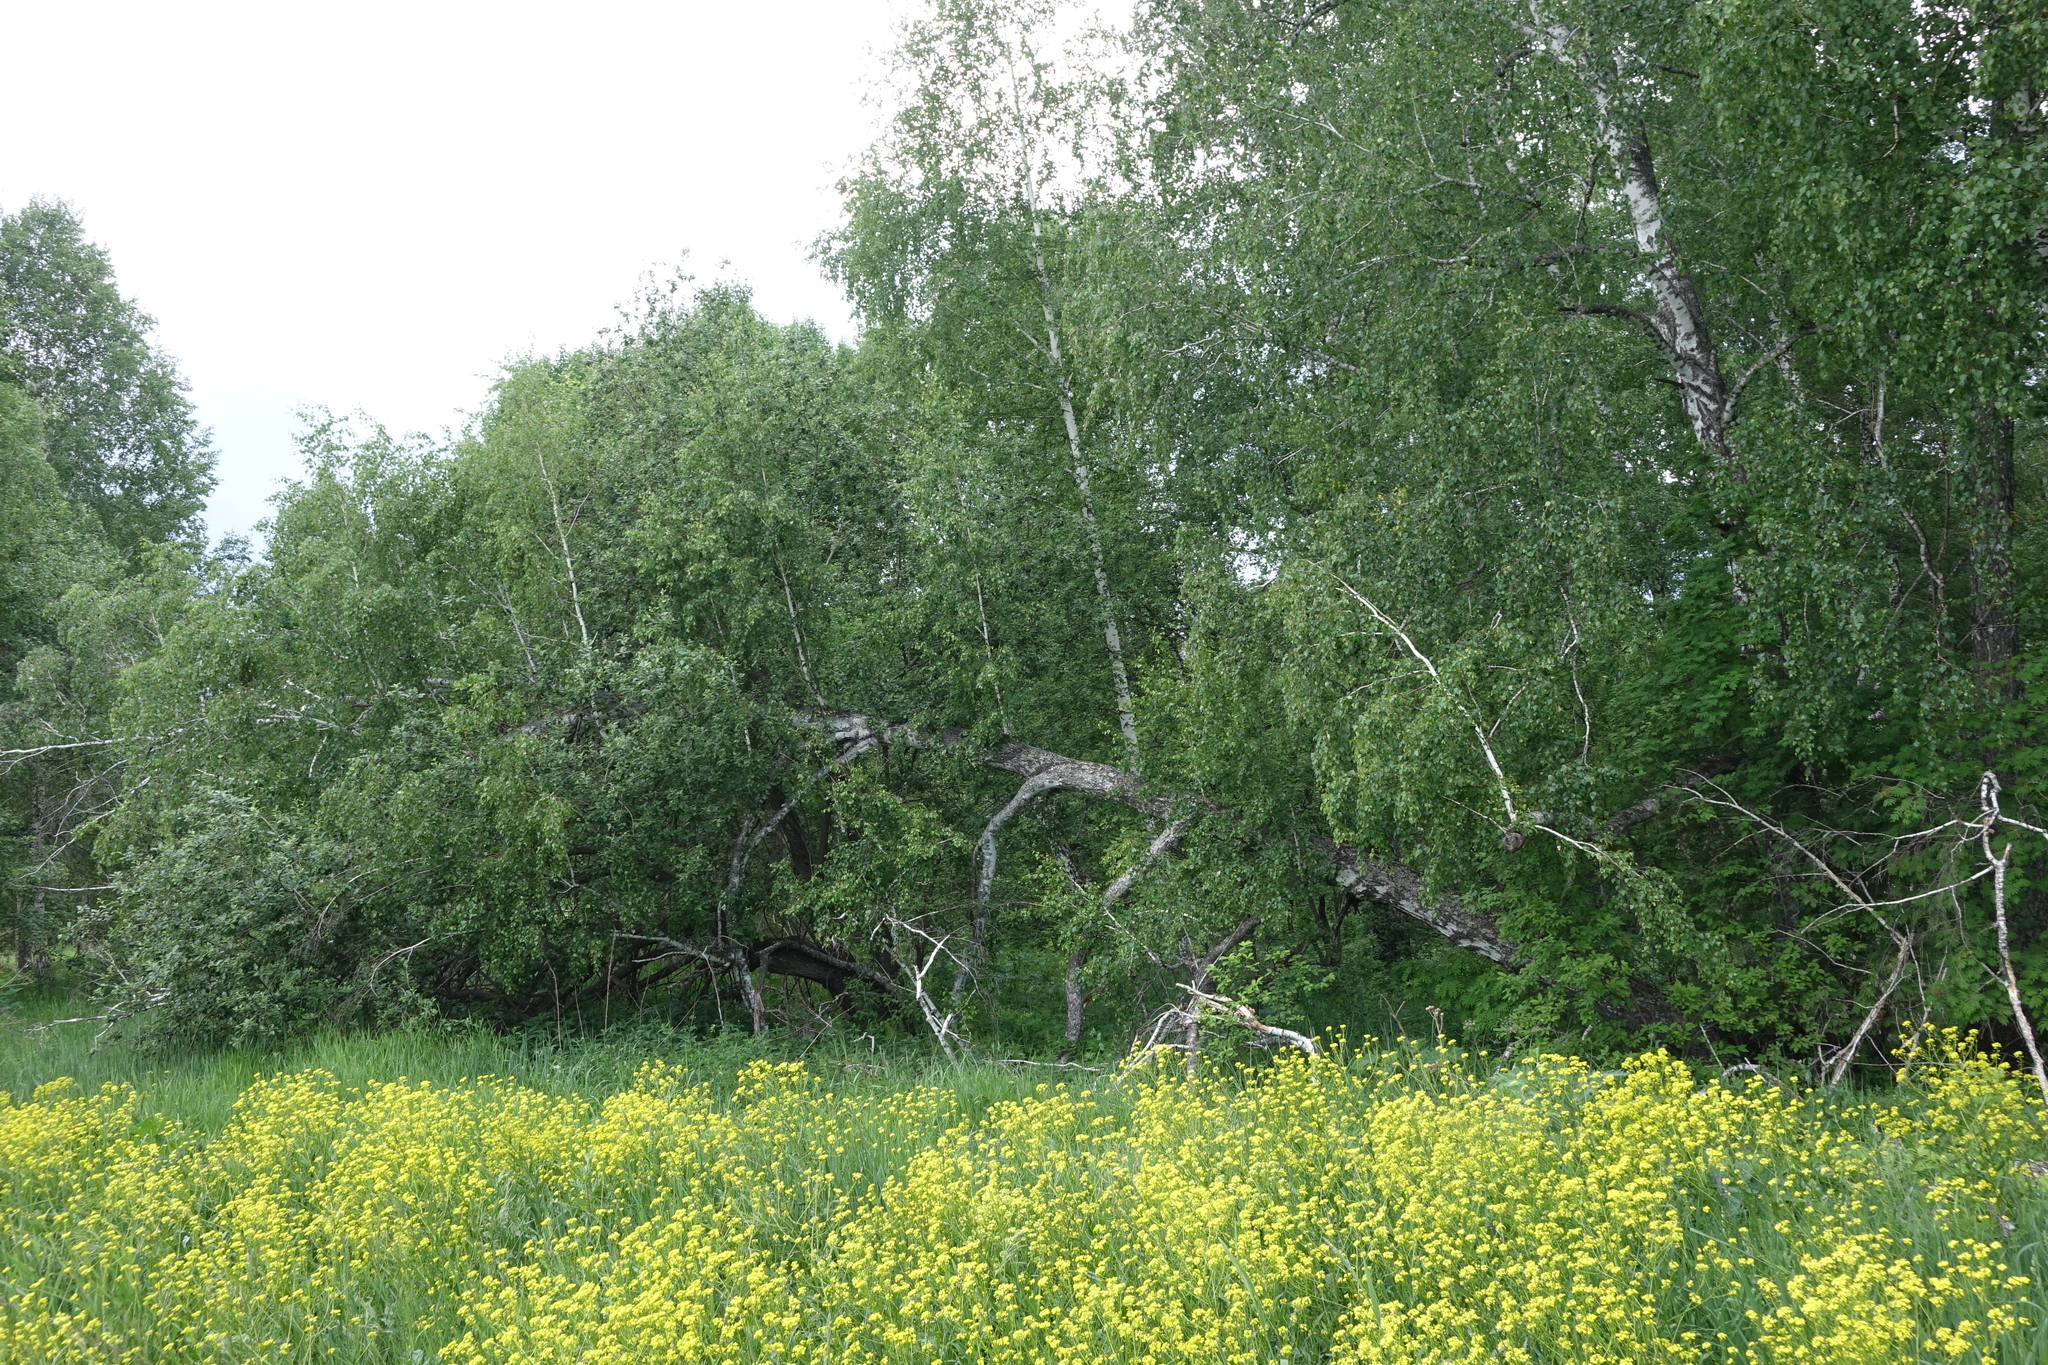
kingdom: Plantae
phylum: Tracheophyta
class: Magnoliopsida
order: Fagales
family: Betulaceae
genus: Betula
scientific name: Betula pendula
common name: Silver birch
